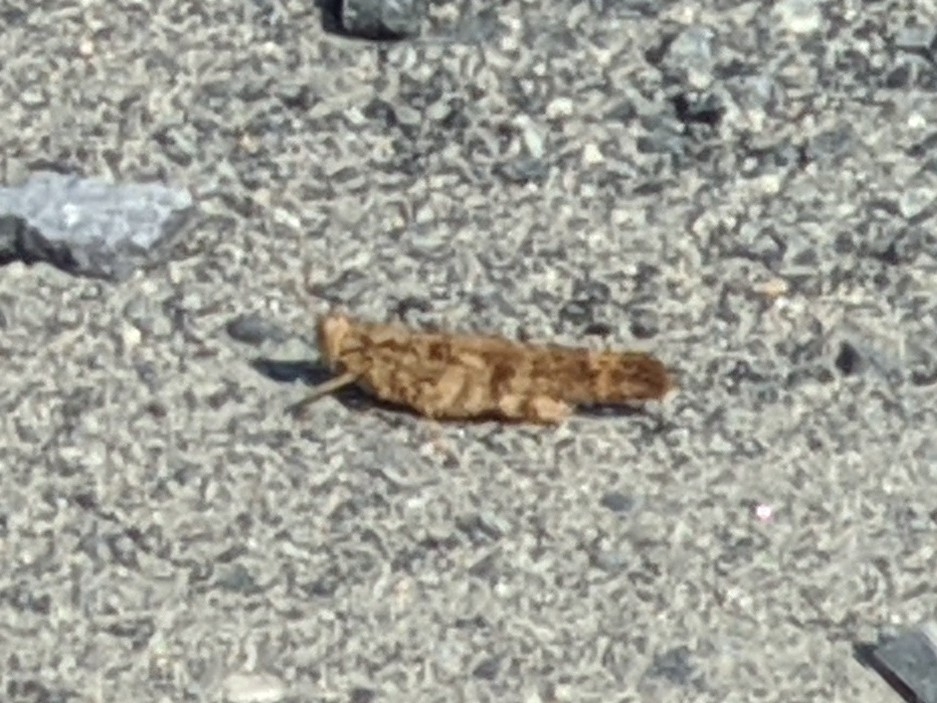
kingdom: Animalia
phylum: Arthropoda
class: Insecta
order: Orthoptera
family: Acrididae
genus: Dissosteira
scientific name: Dissosteira carolina
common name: Carolina grasshopper
